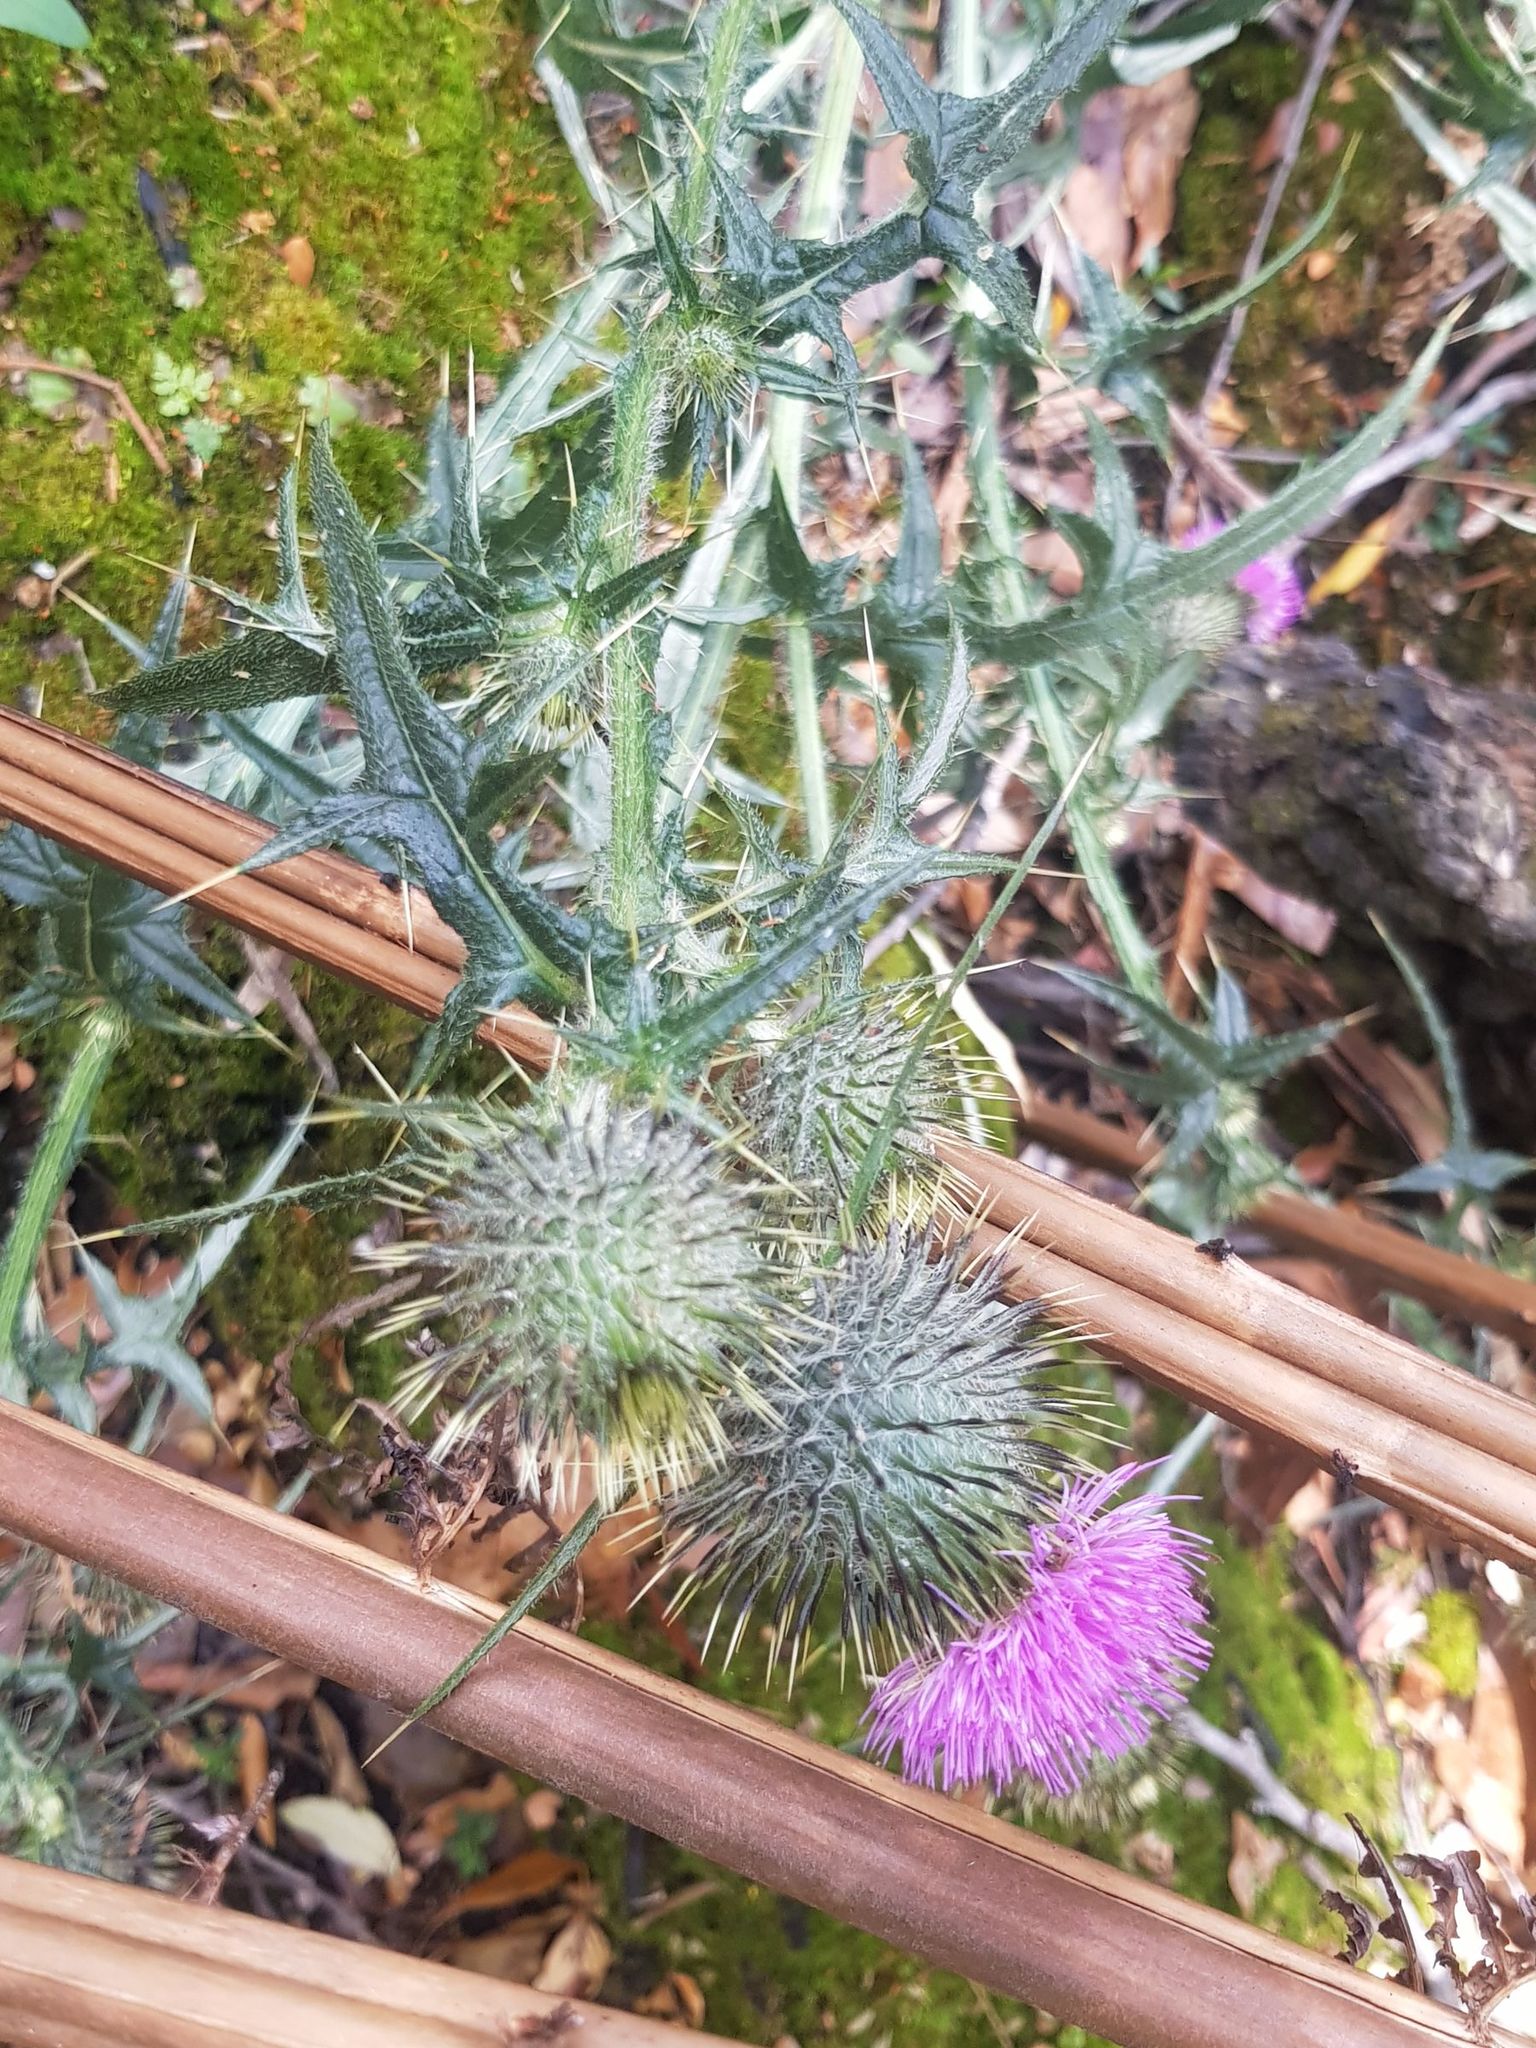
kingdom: Plantae
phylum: Tracheophyta
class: Magnoliopsida
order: Asterales
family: Asteraceae
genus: Cirsium
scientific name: Cirsium vulgare
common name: Bull thistle
